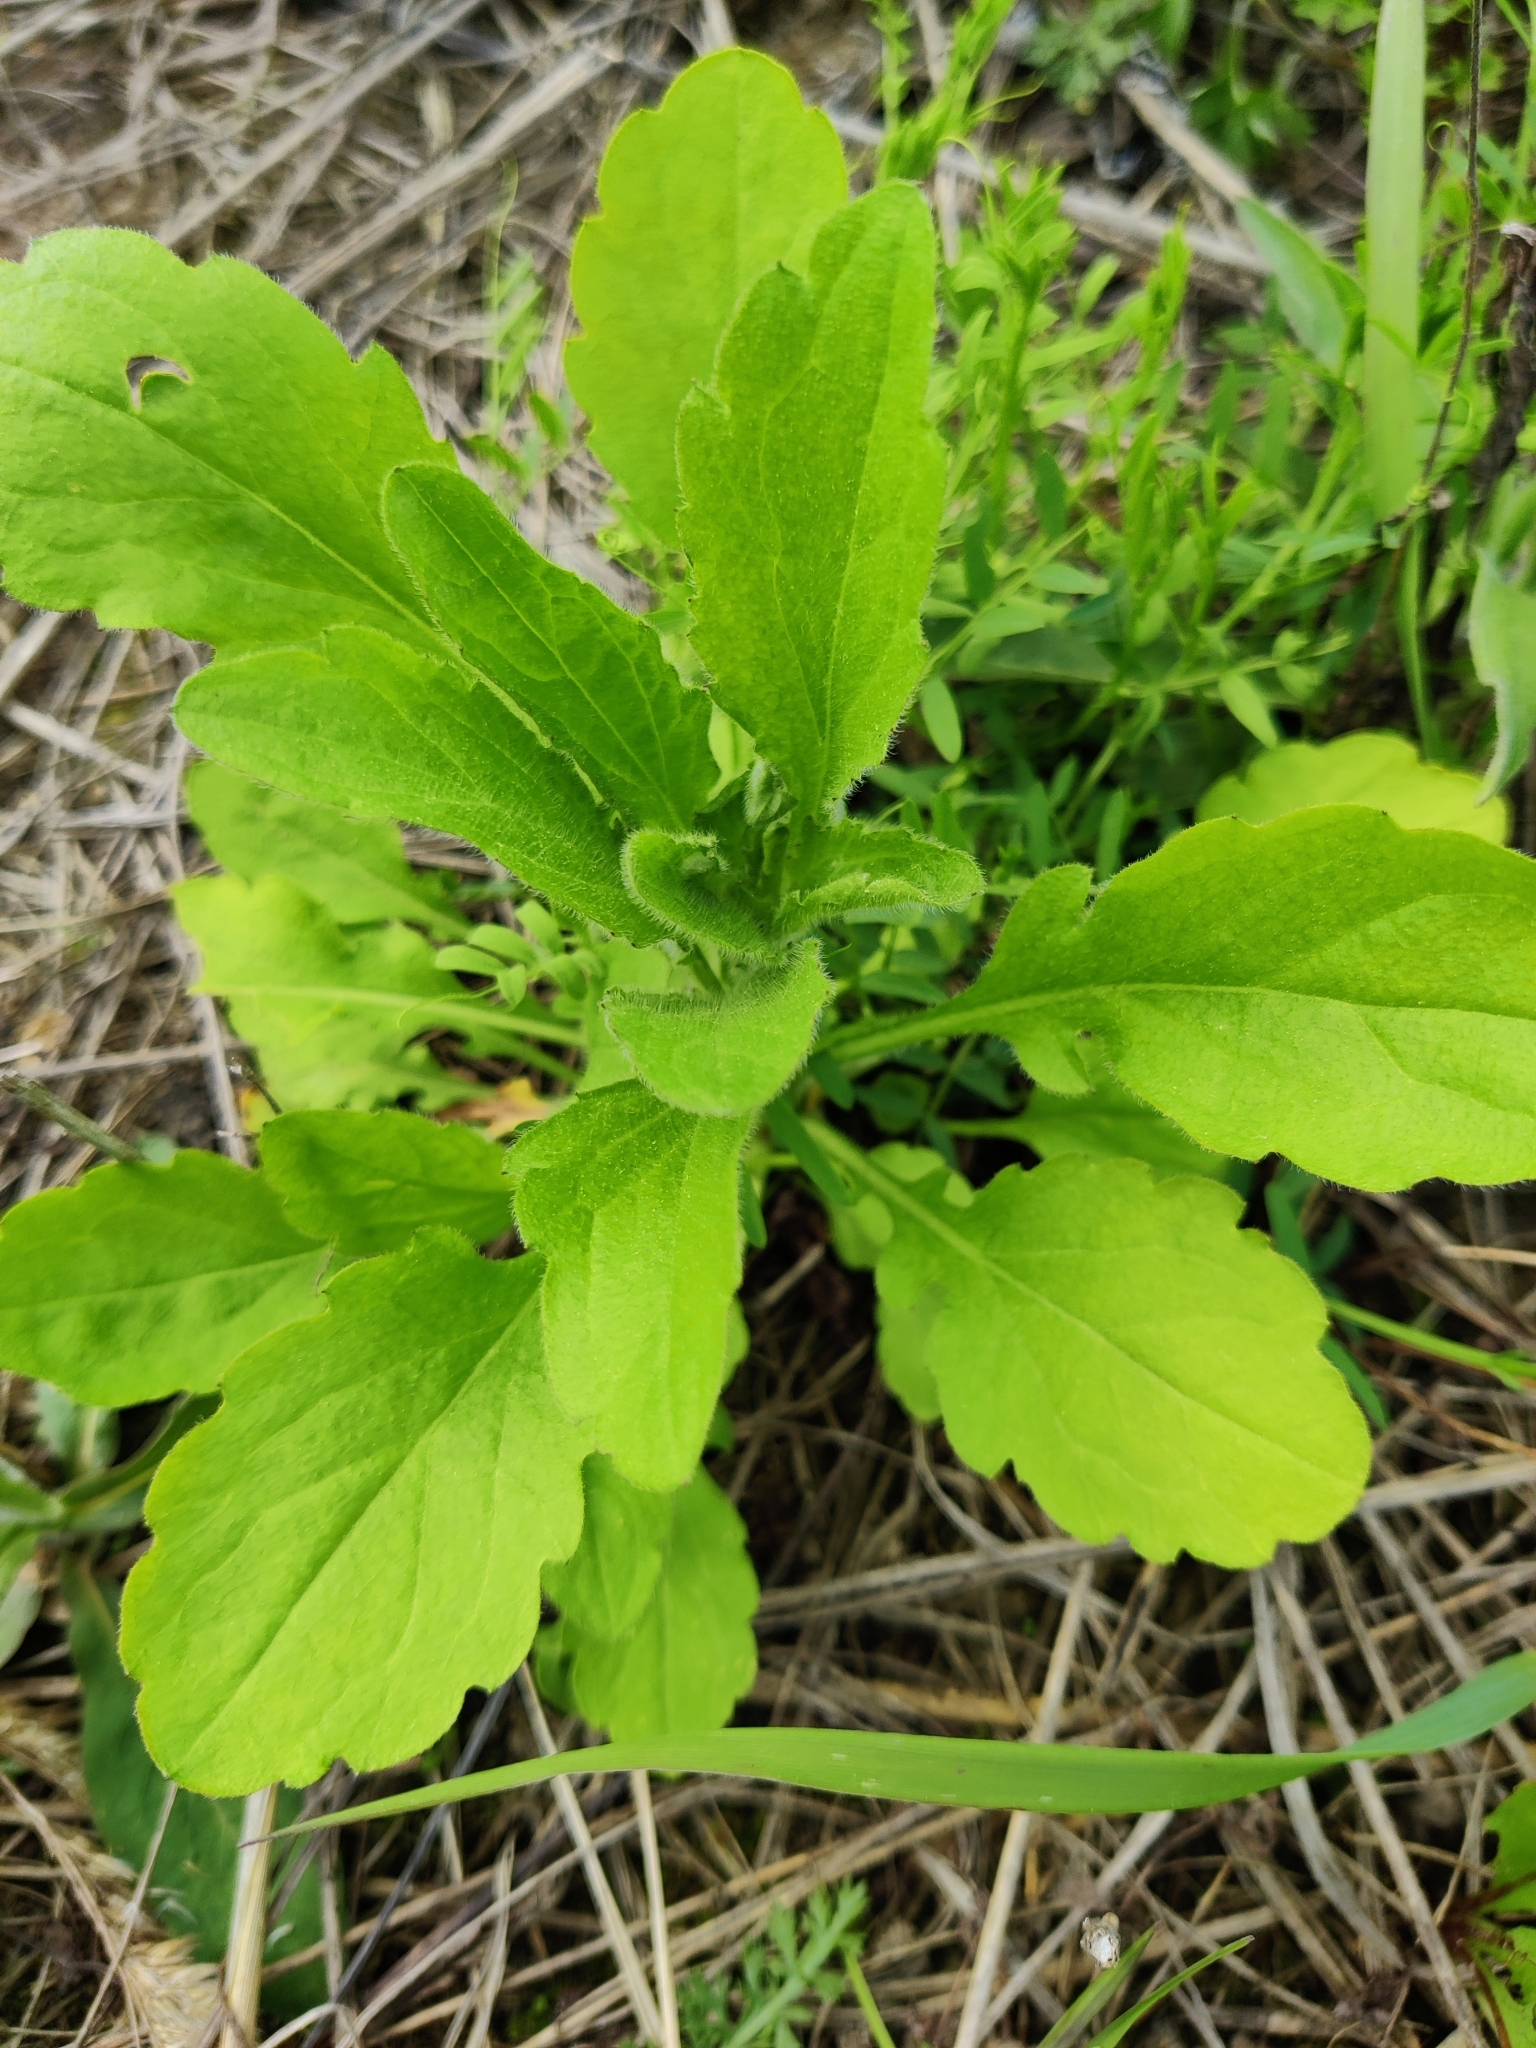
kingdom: Plantae
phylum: Tracheophyta
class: Magnoliopsida
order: Asterales
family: Asteraceae
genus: Erigeron
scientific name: Erigeron annuus
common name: Tall fleabane
